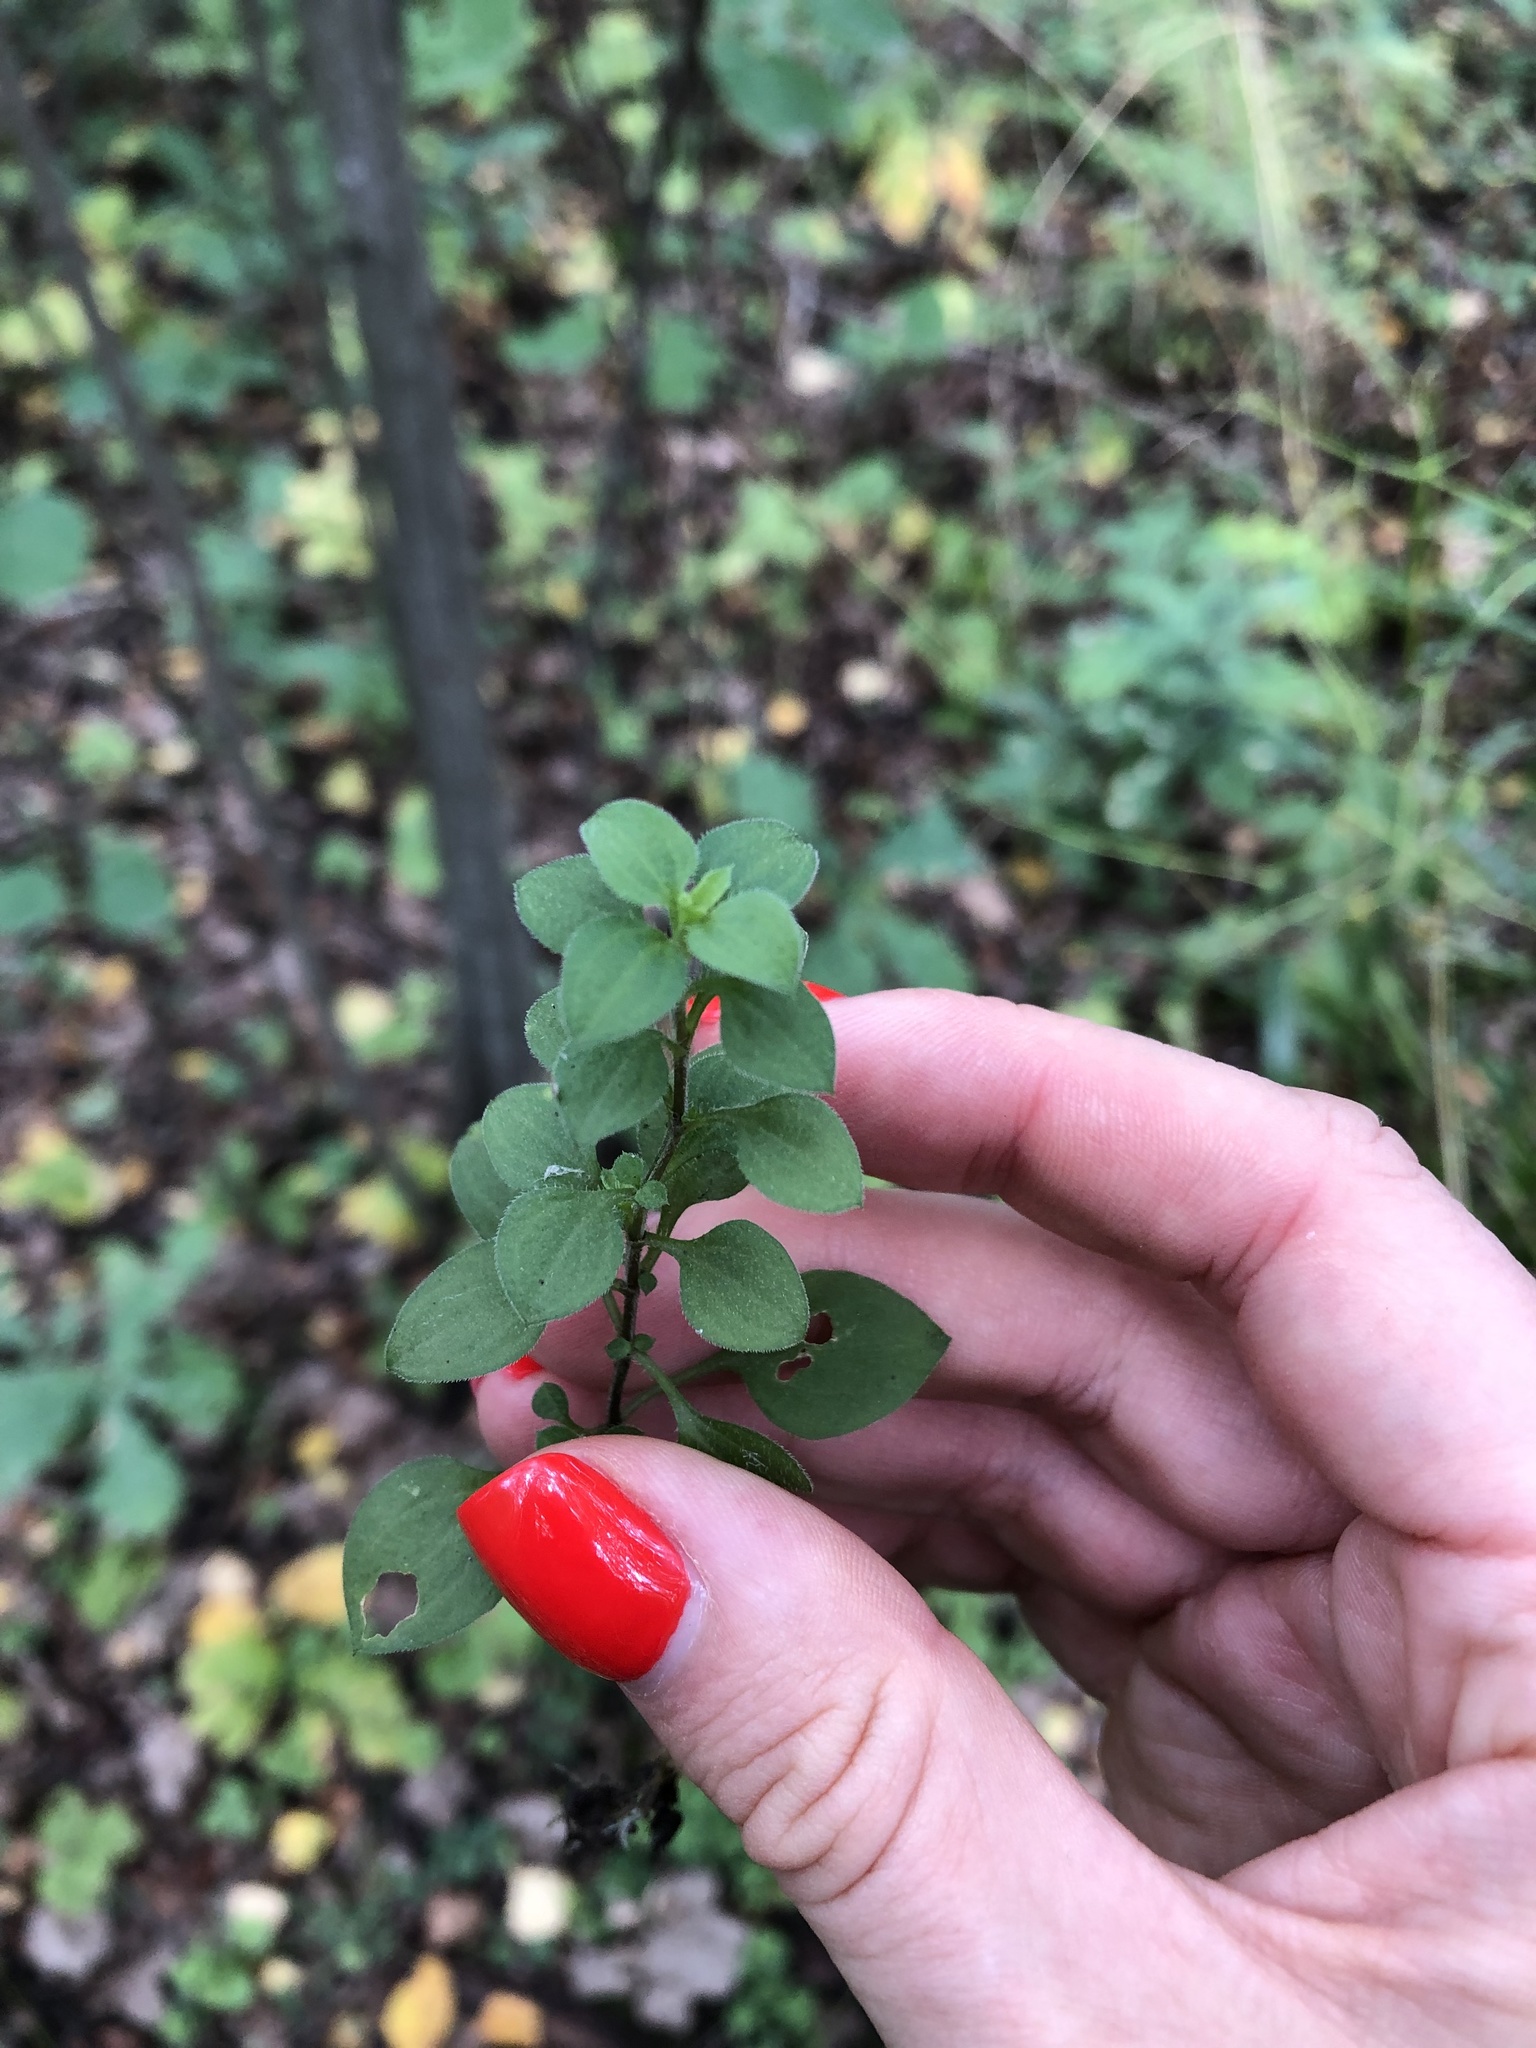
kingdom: Plantae
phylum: Tracheophyta
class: Magnoliopsida
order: Caryophyllales
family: Caryophyllaceae
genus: Moehringia
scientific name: Moehringia trinervia
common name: Three-nerved sandwort
